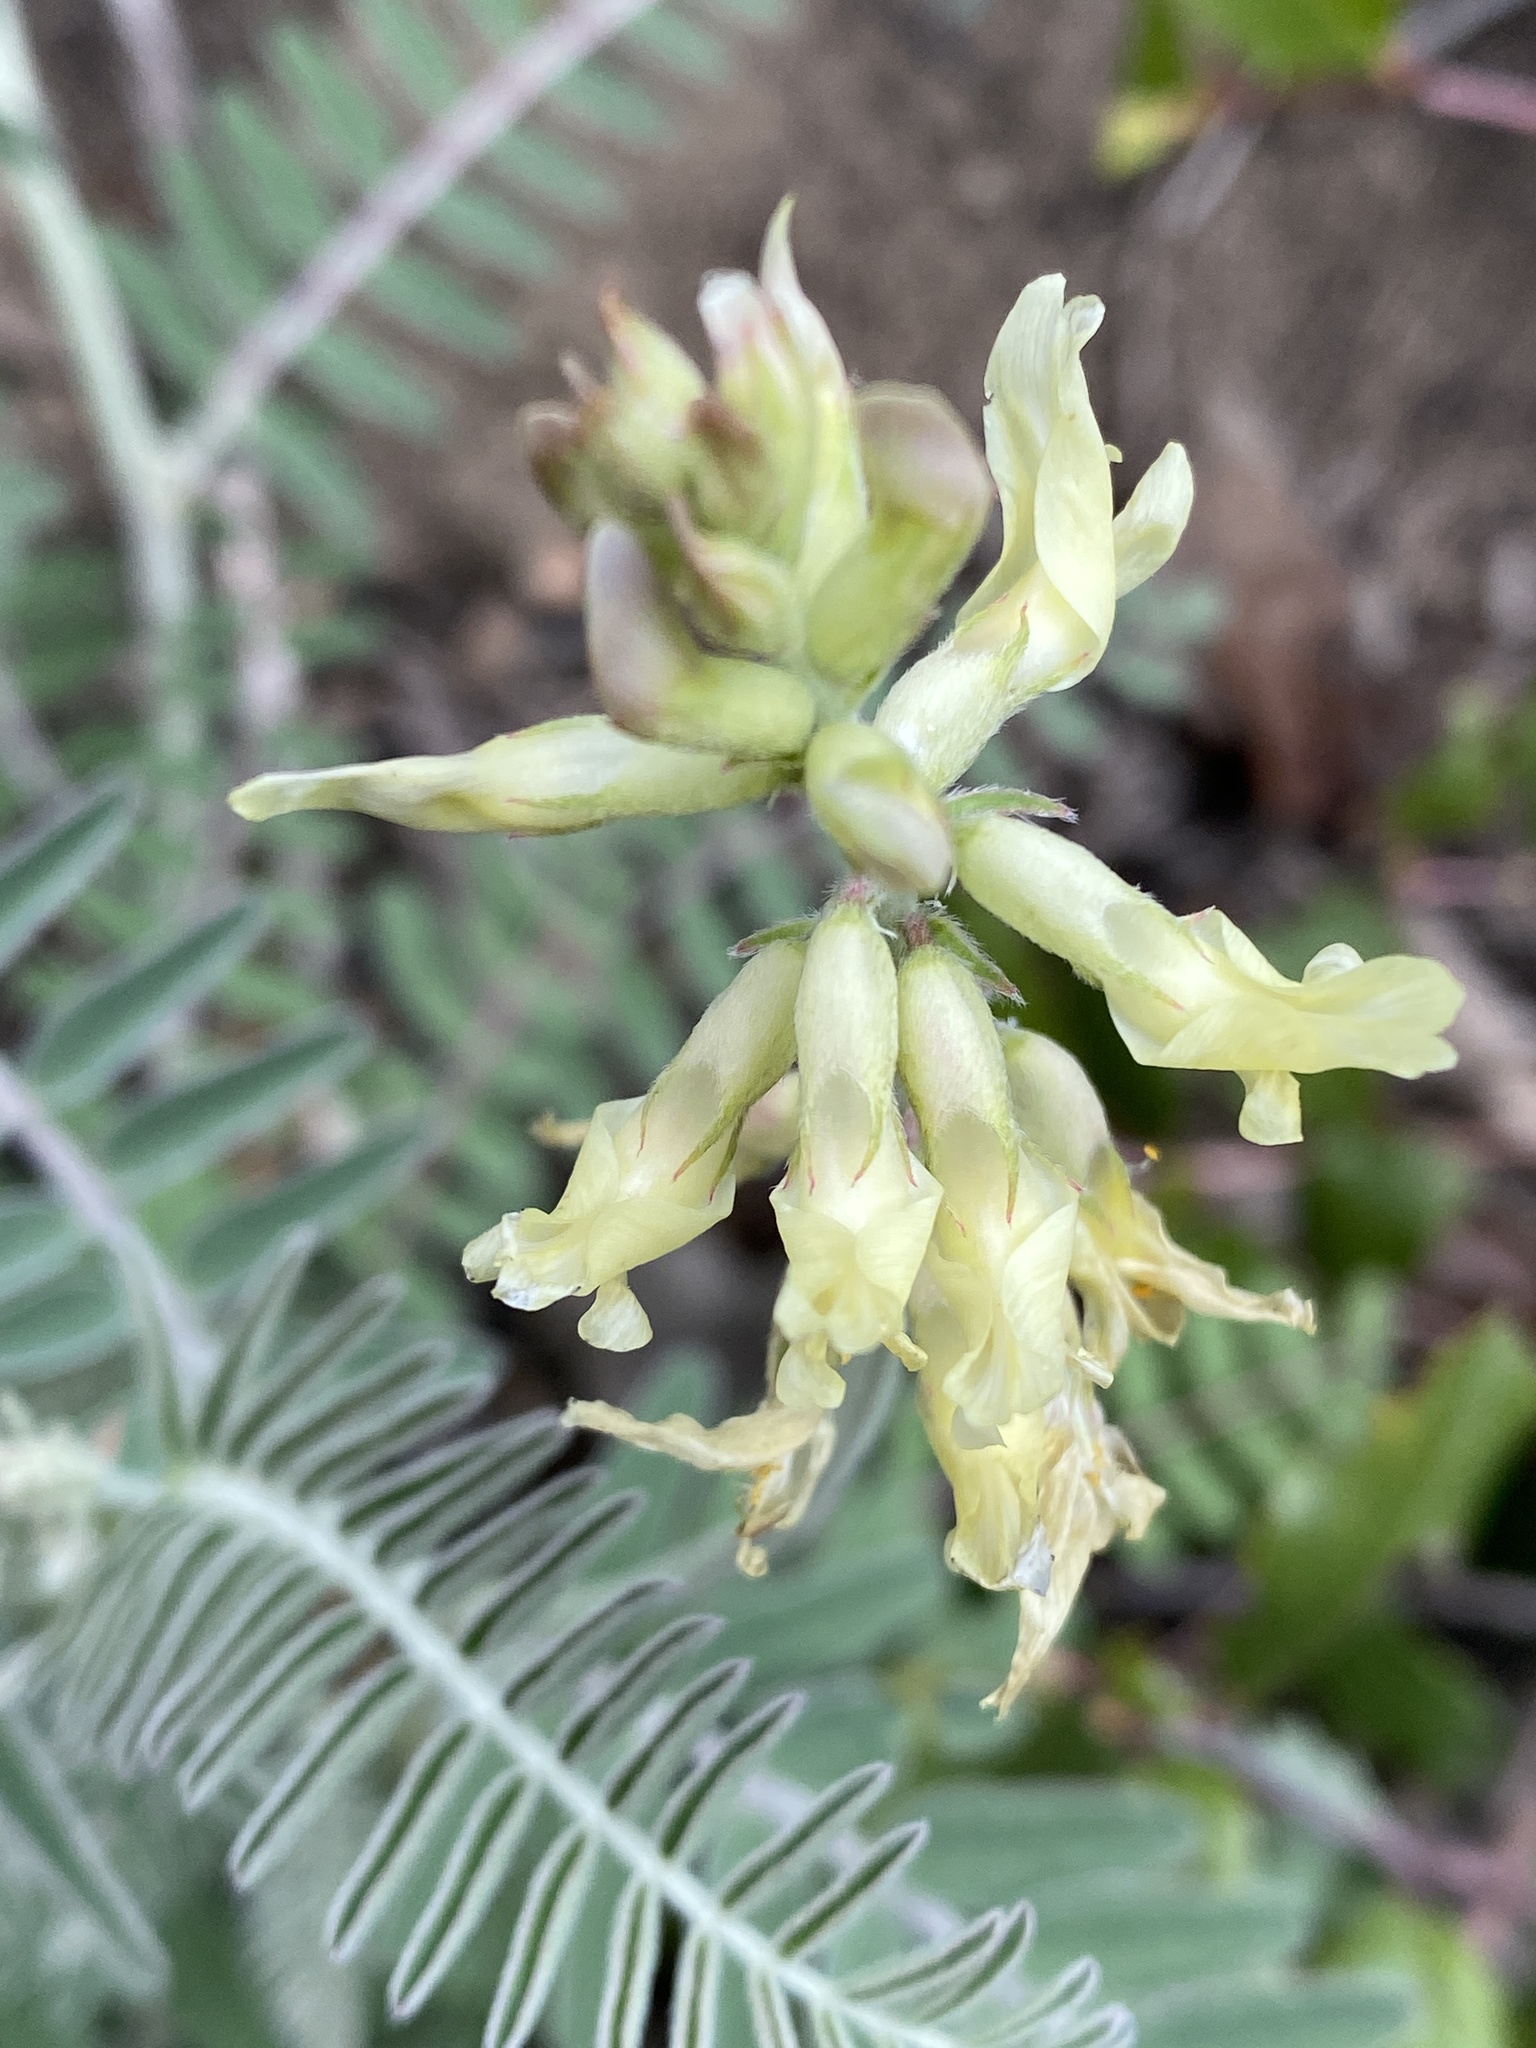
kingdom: Plantae
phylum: Tracheophyta
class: Magnoliopsida
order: Fabales
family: Fabaceae
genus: Astragalus
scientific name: Astragalus trichopodus
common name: Santa barbara milk-vetch
